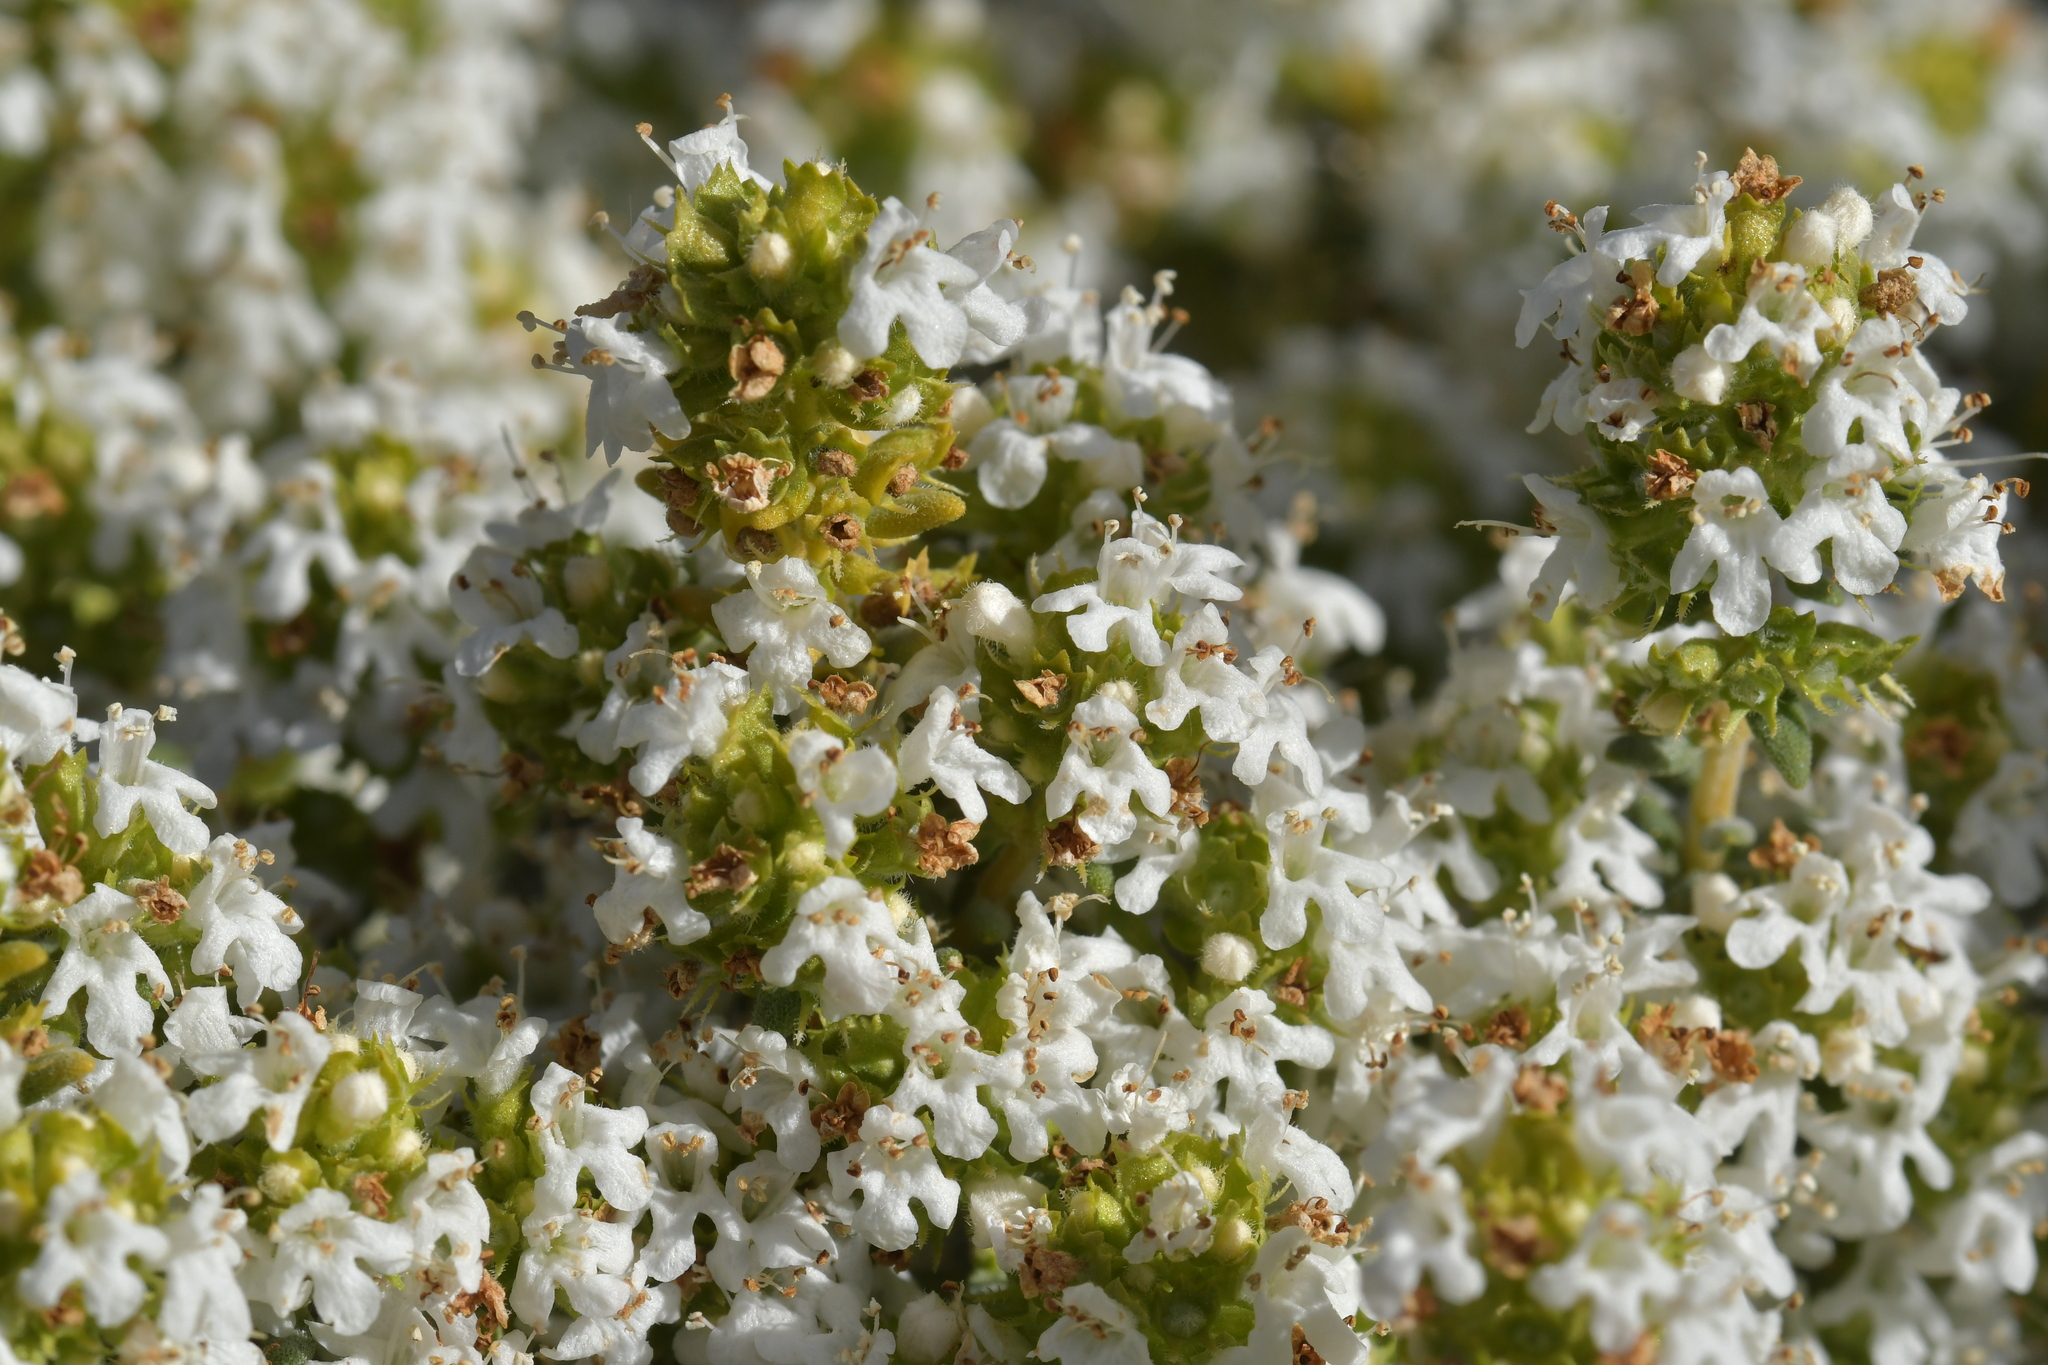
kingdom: Plantae
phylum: Tracheophyta
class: Magnoliopsida
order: Lamiales
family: Lamiaceae
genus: Thymus
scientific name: Thymus vulgaris
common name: Garden thyme
